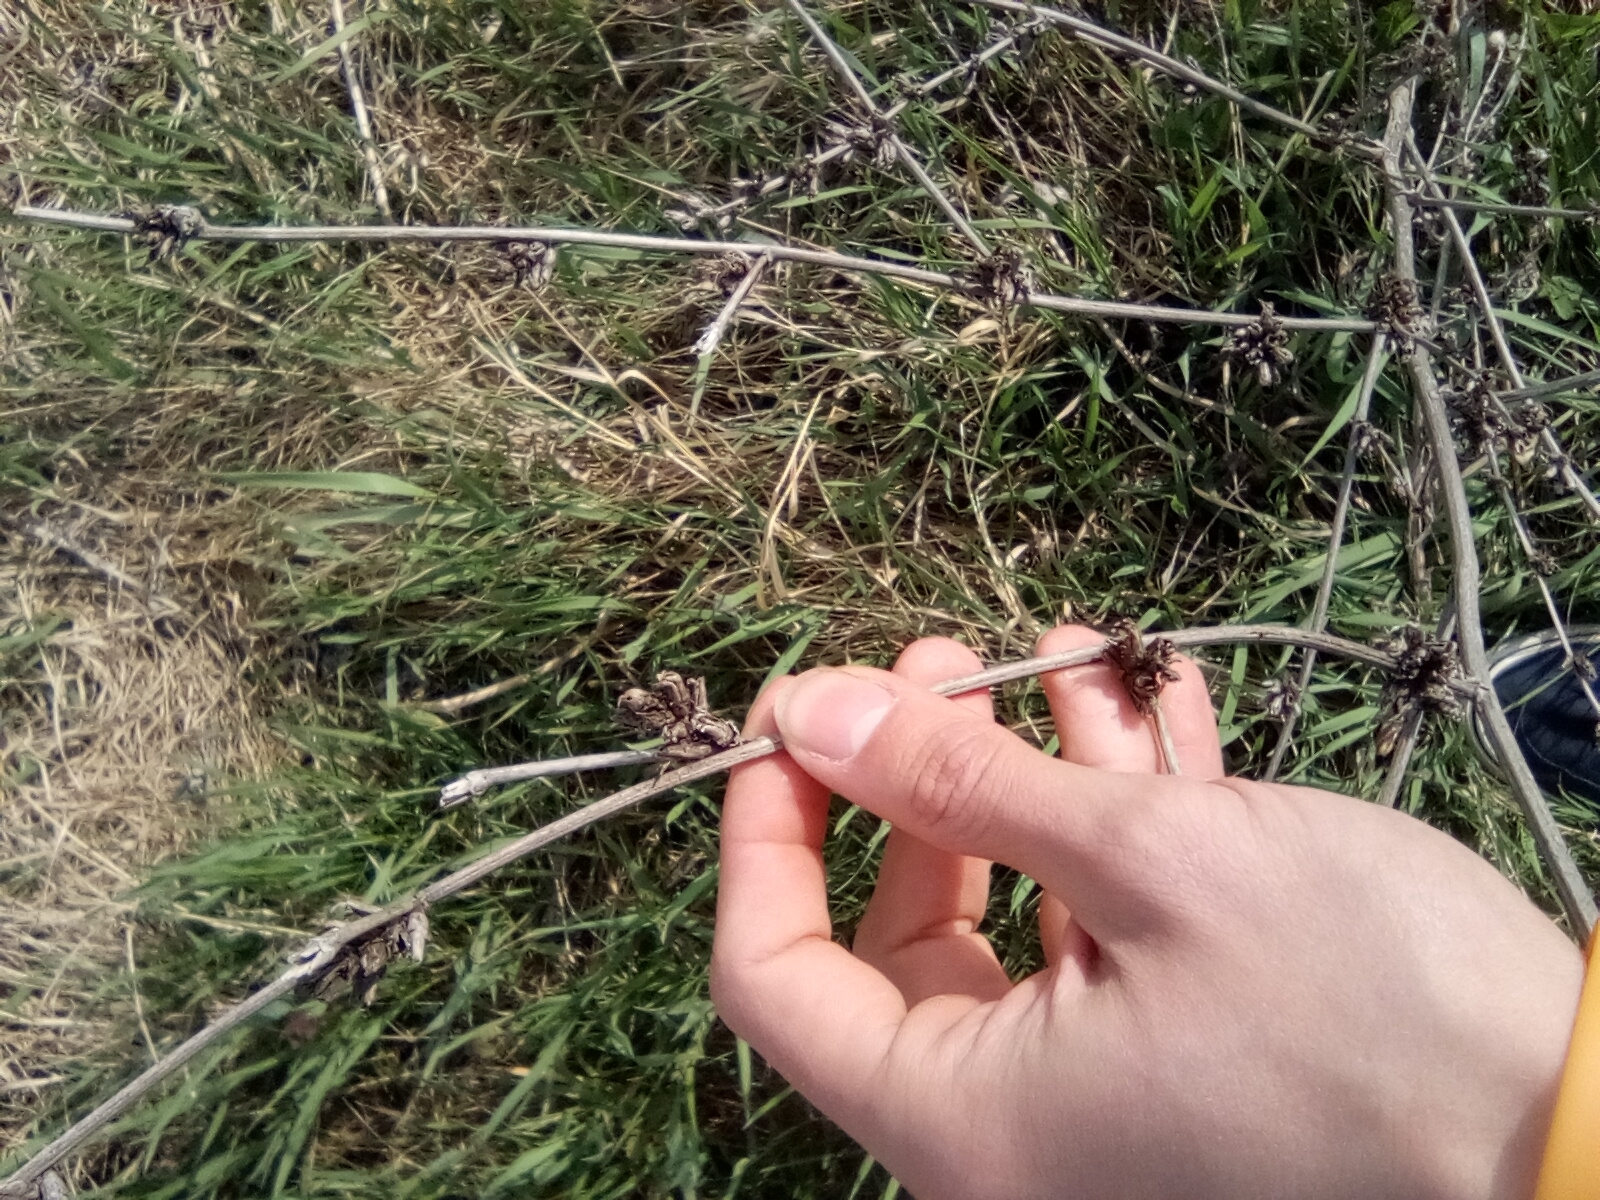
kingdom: Plantae
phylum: Tracheophyta
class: Magnoliopsida
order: Asterales
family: Asteraceae
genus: Cichorium
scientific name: Cichorium intybus
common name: Chicory
